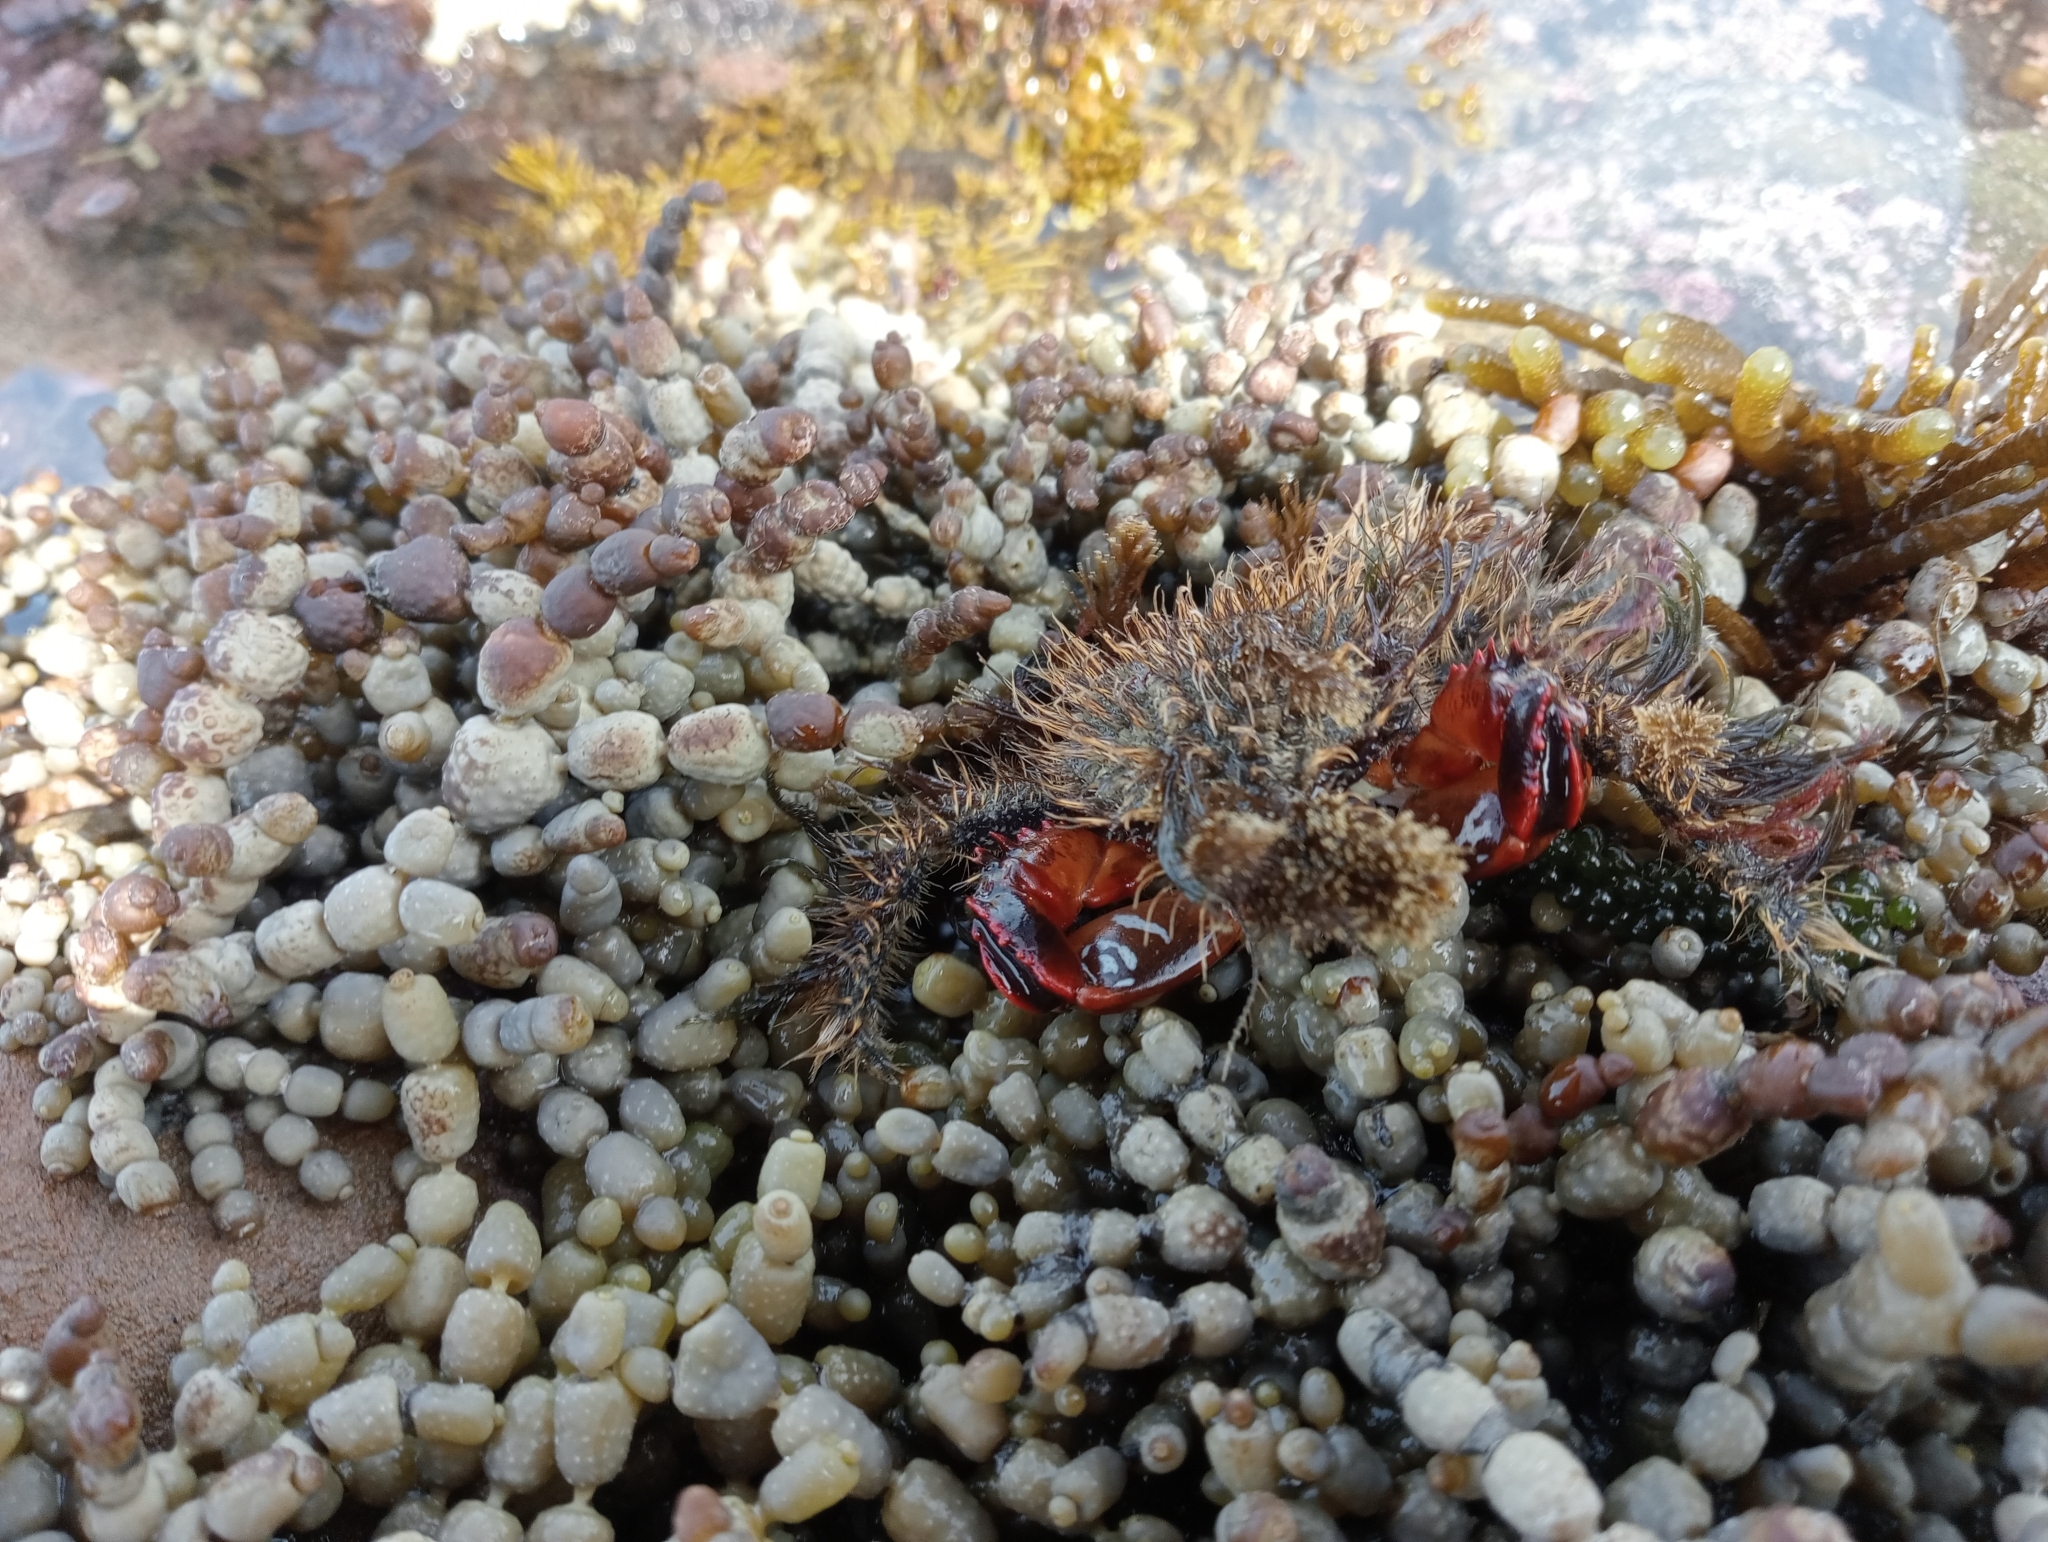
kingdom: Animalia
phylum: Arthropoda
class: Malacostraca
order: Decapoda
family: Majidae
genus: Notomithrax
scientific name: Notomithrax ursus
